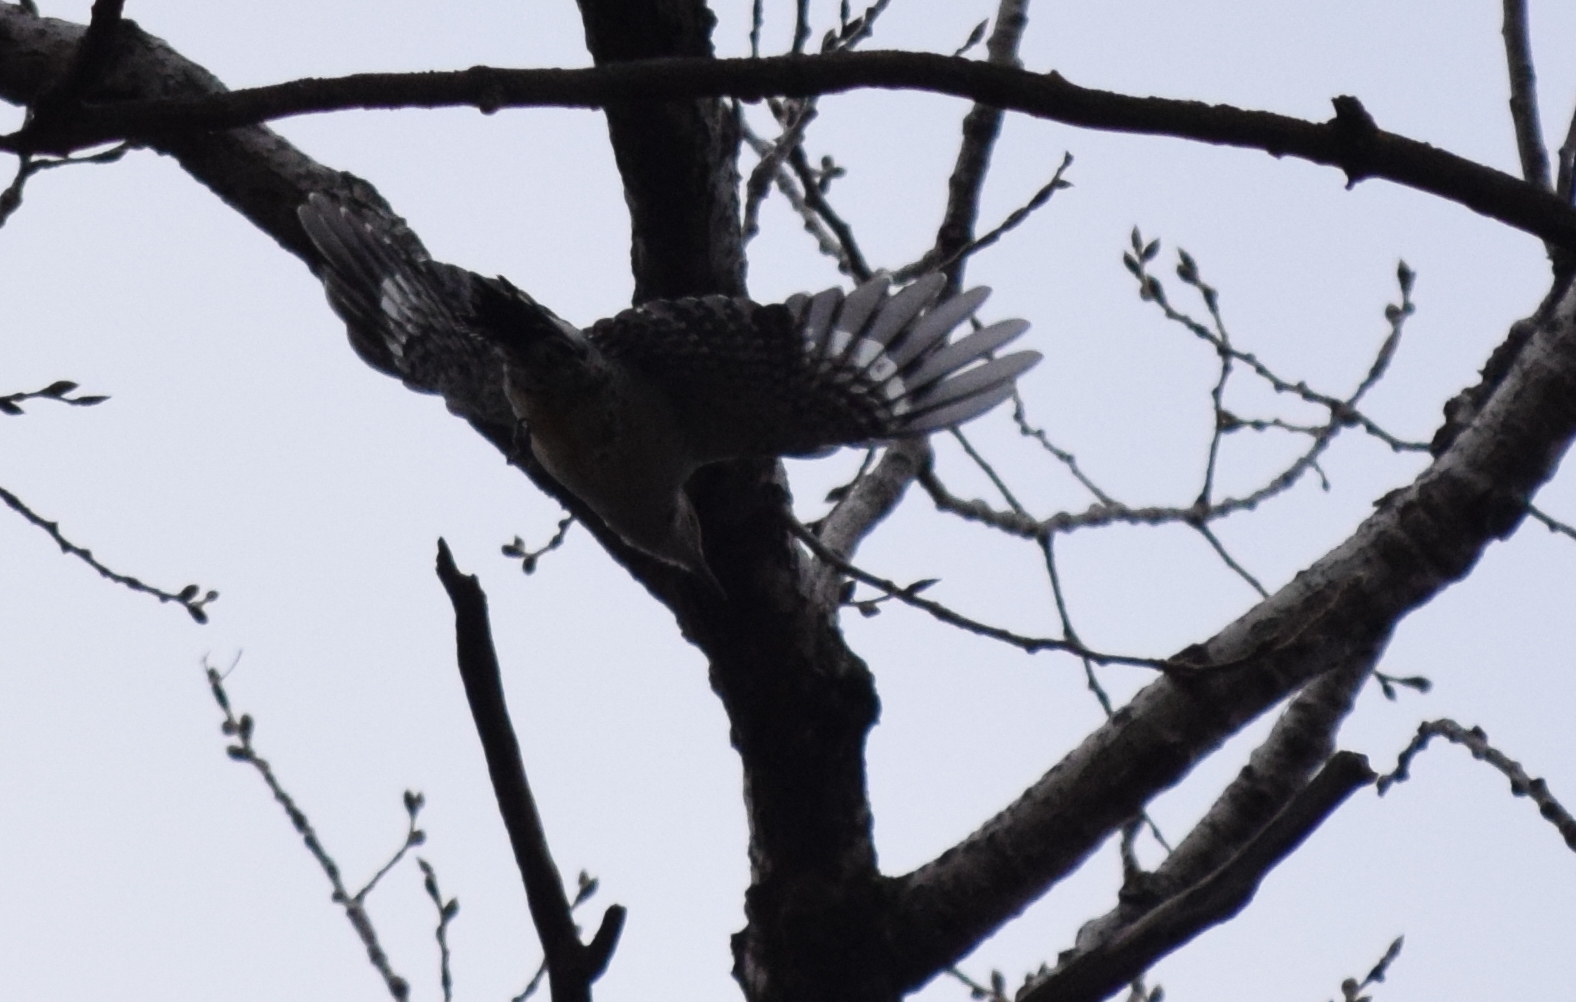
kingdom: Animalia
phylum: Chordata
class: Aves
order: Piciformes
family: Picidae
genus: Melanerpes
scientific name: Melanerpes carolinus
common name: Red-bellied woodpecker
